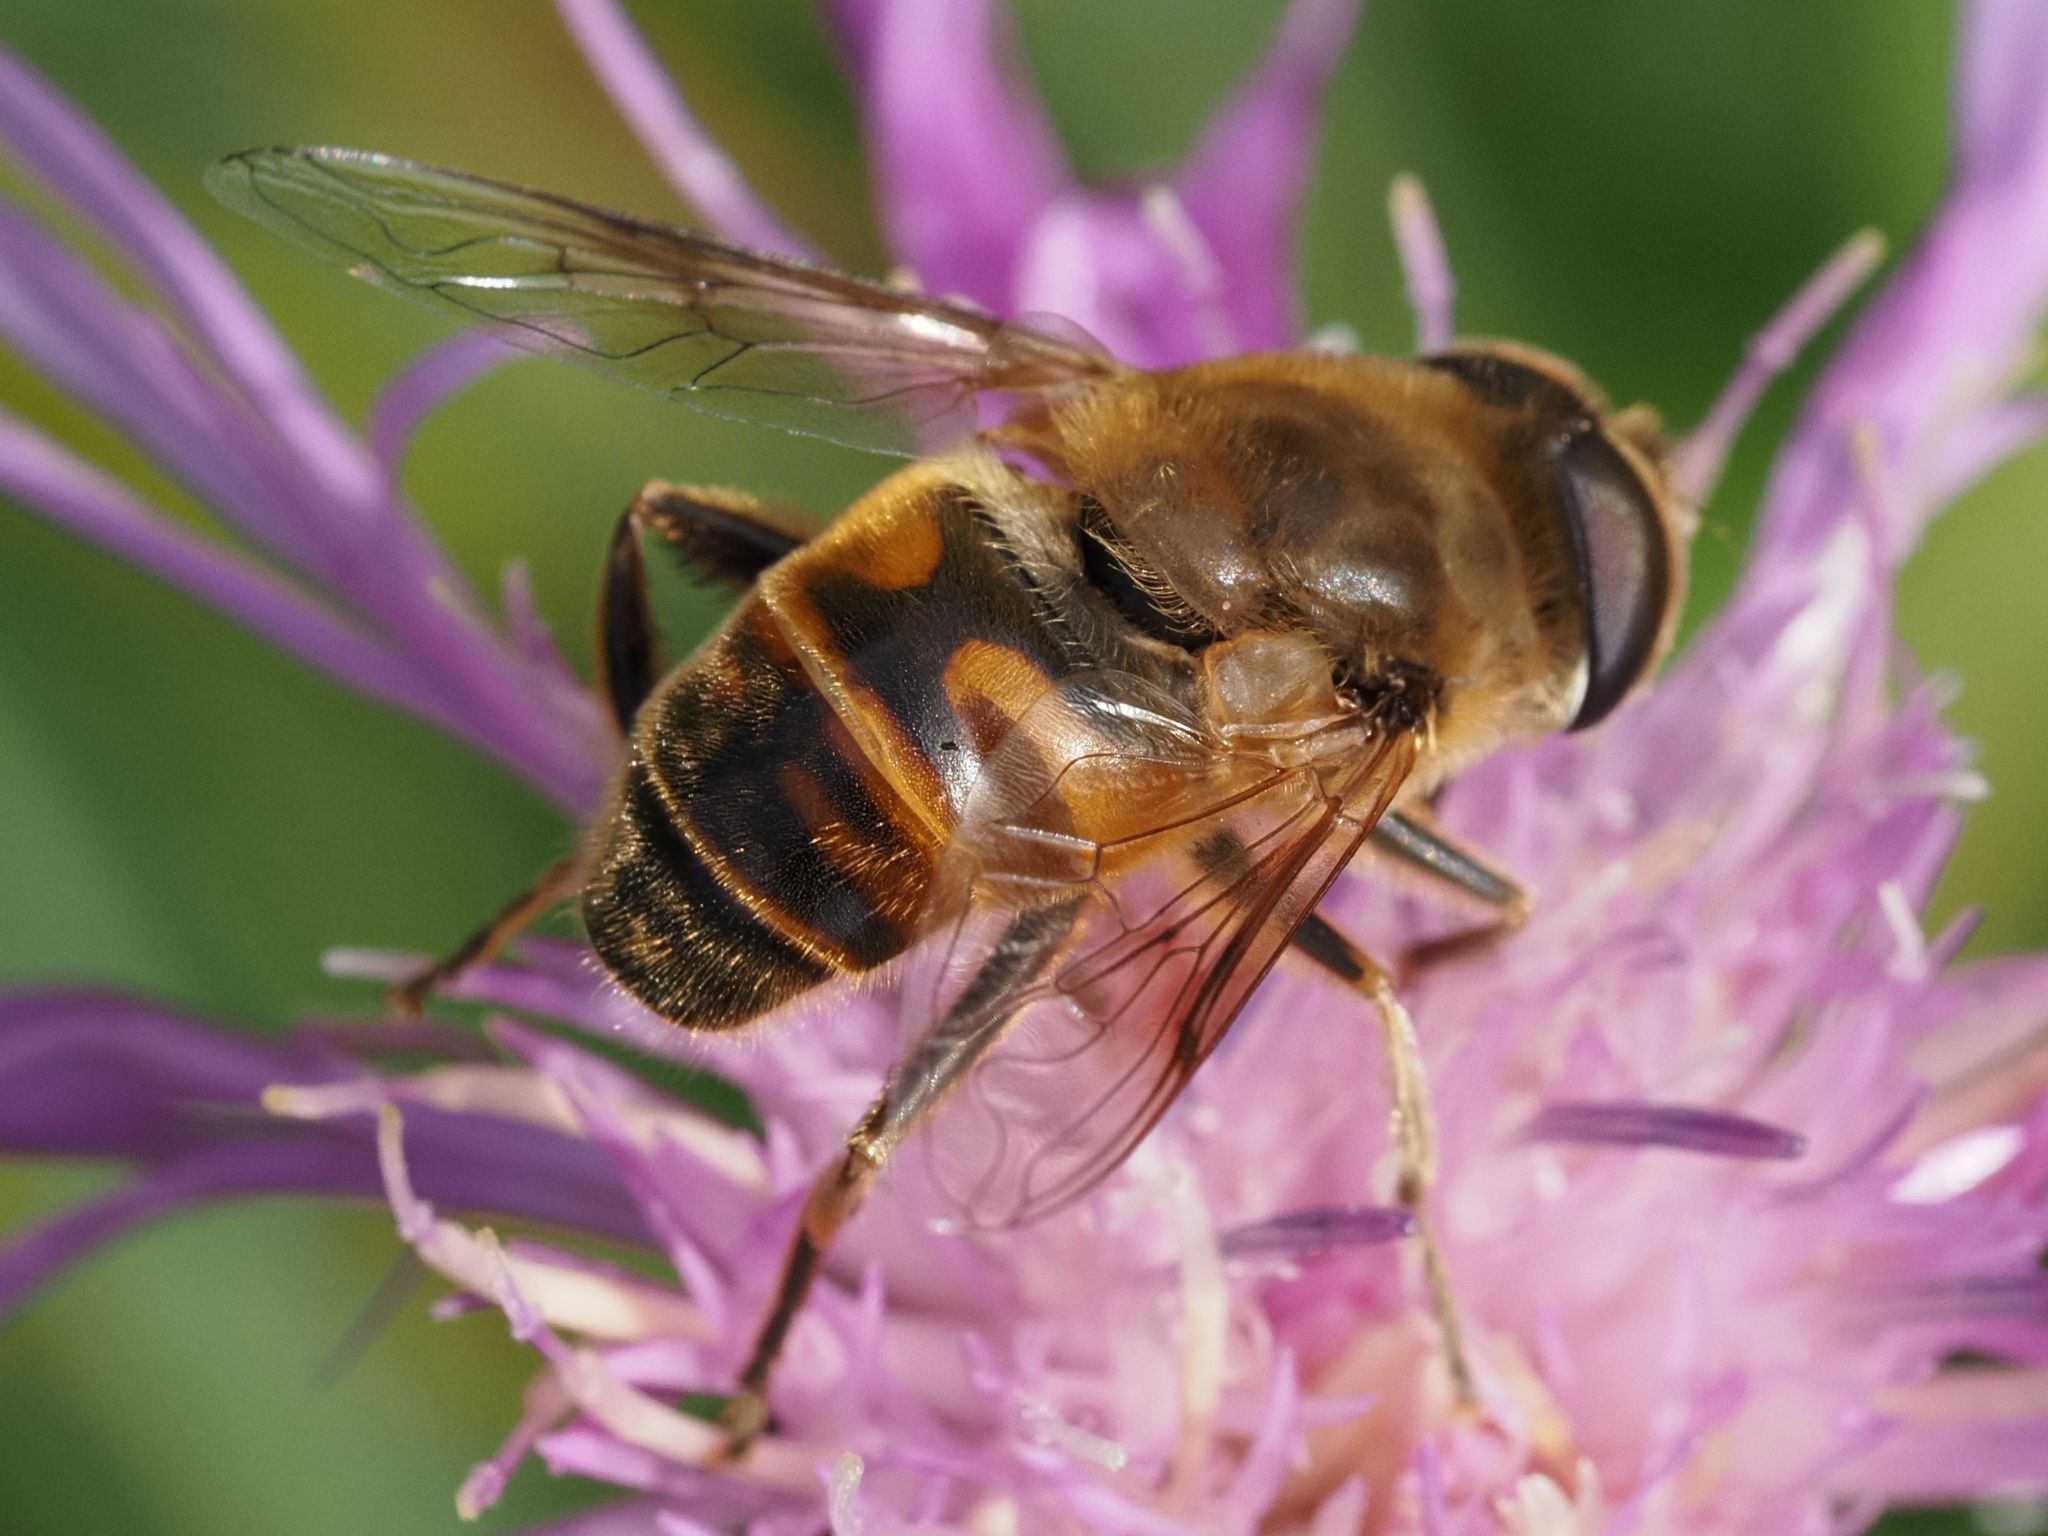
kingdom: Animalia
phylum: Arthropoda
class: Insecta
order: Diptera
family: Syrphidae
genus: Eristalis
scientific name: Eristalis tenax
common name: Drone fly
